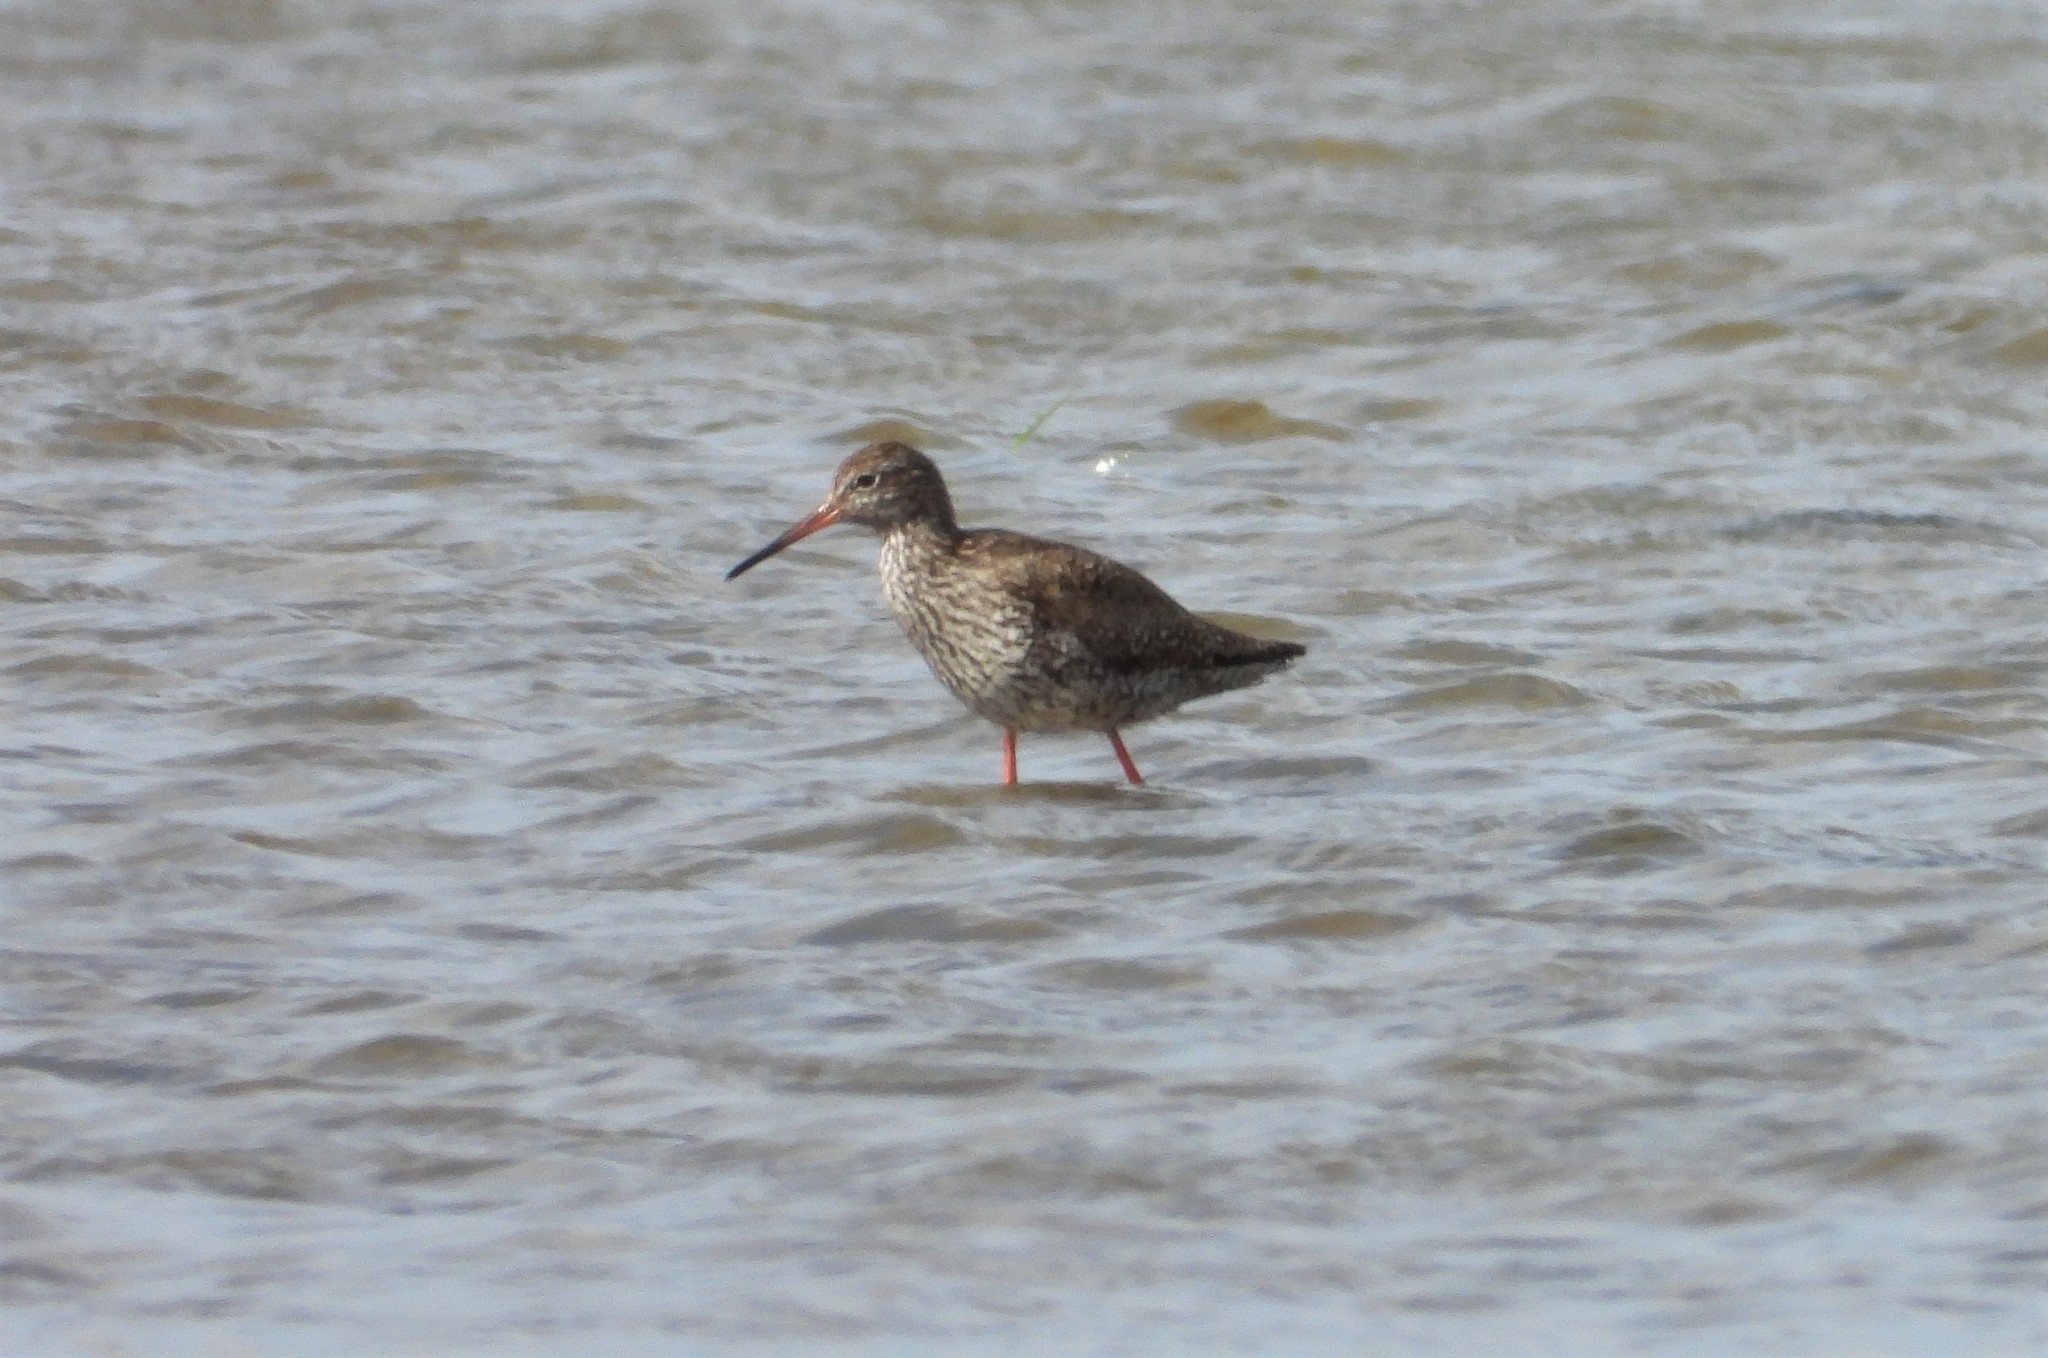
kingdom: Animalia
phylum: Chordata
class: Aves
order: Charadriiformes
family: Scolopacidae
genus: Tringa
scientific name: Tringa totanus
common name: Common redshank
